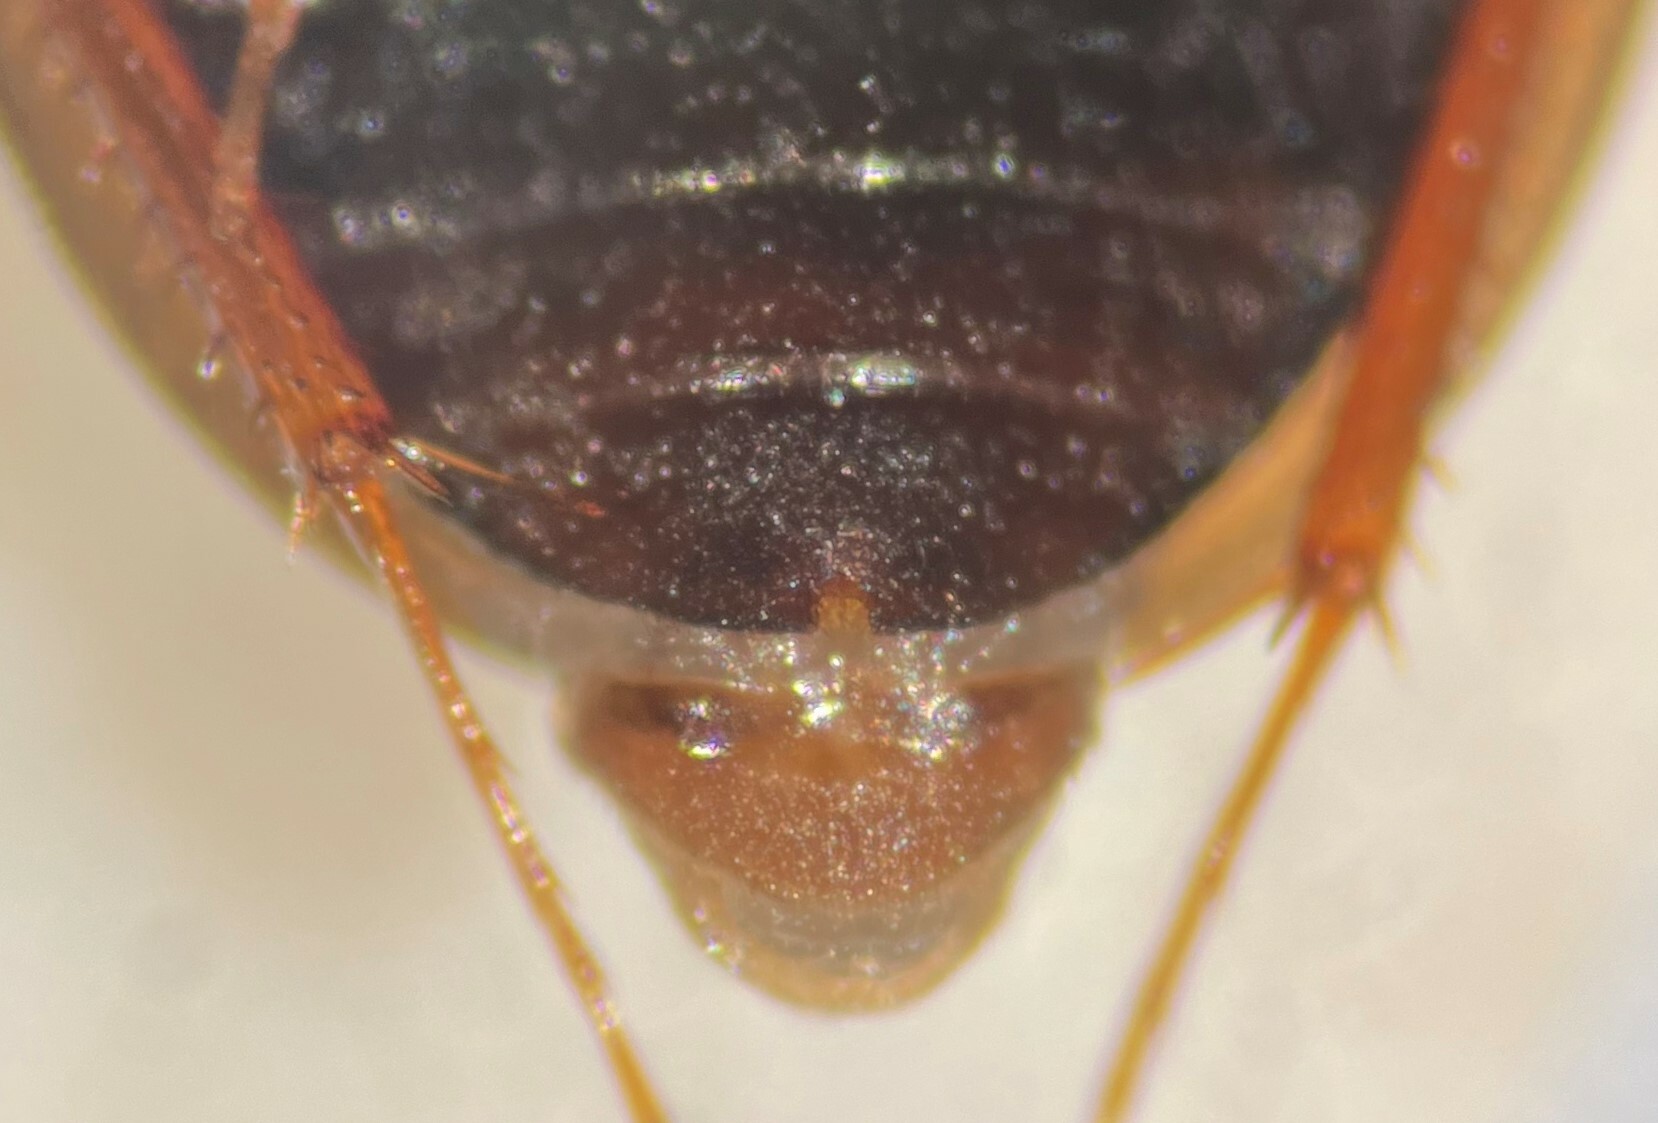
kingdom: Animalia
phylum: Arthropoda
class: Insecta
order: Coleoptera
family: Hydrophilidae
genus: Enochrus
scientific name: Enochrus blatchleyi
